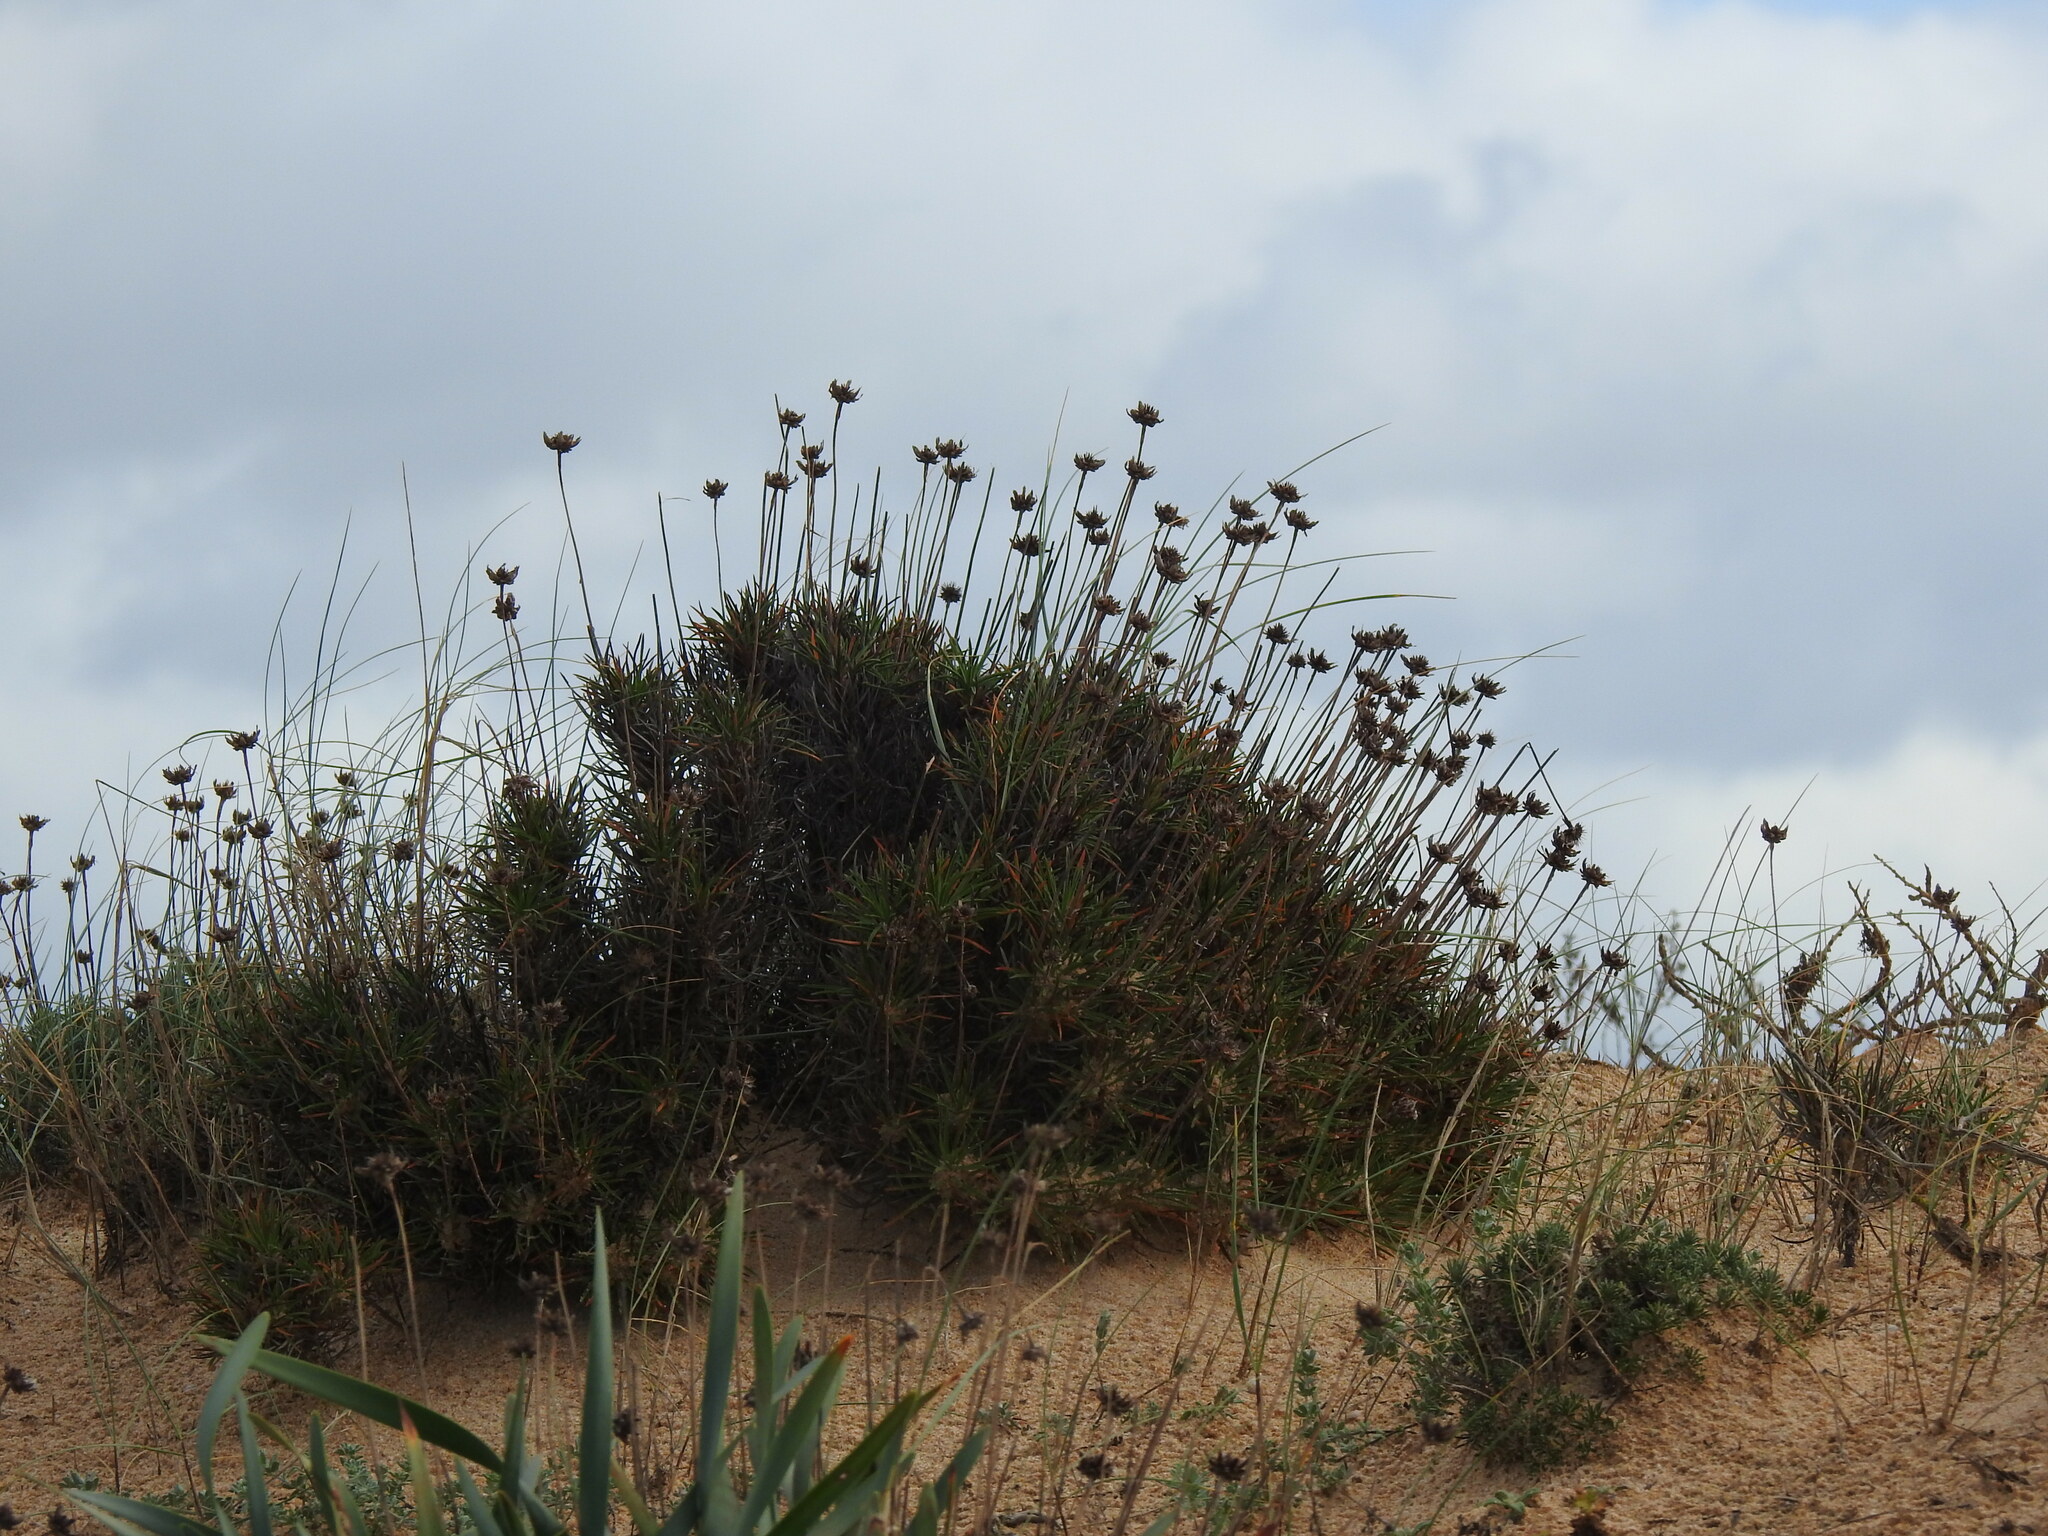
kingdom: Plantae
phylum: Tracheophyta
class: Magnoliopsida
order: Caryophyllales
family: Plumbaginaceae
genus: Armeria
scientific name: Armeria pungens
